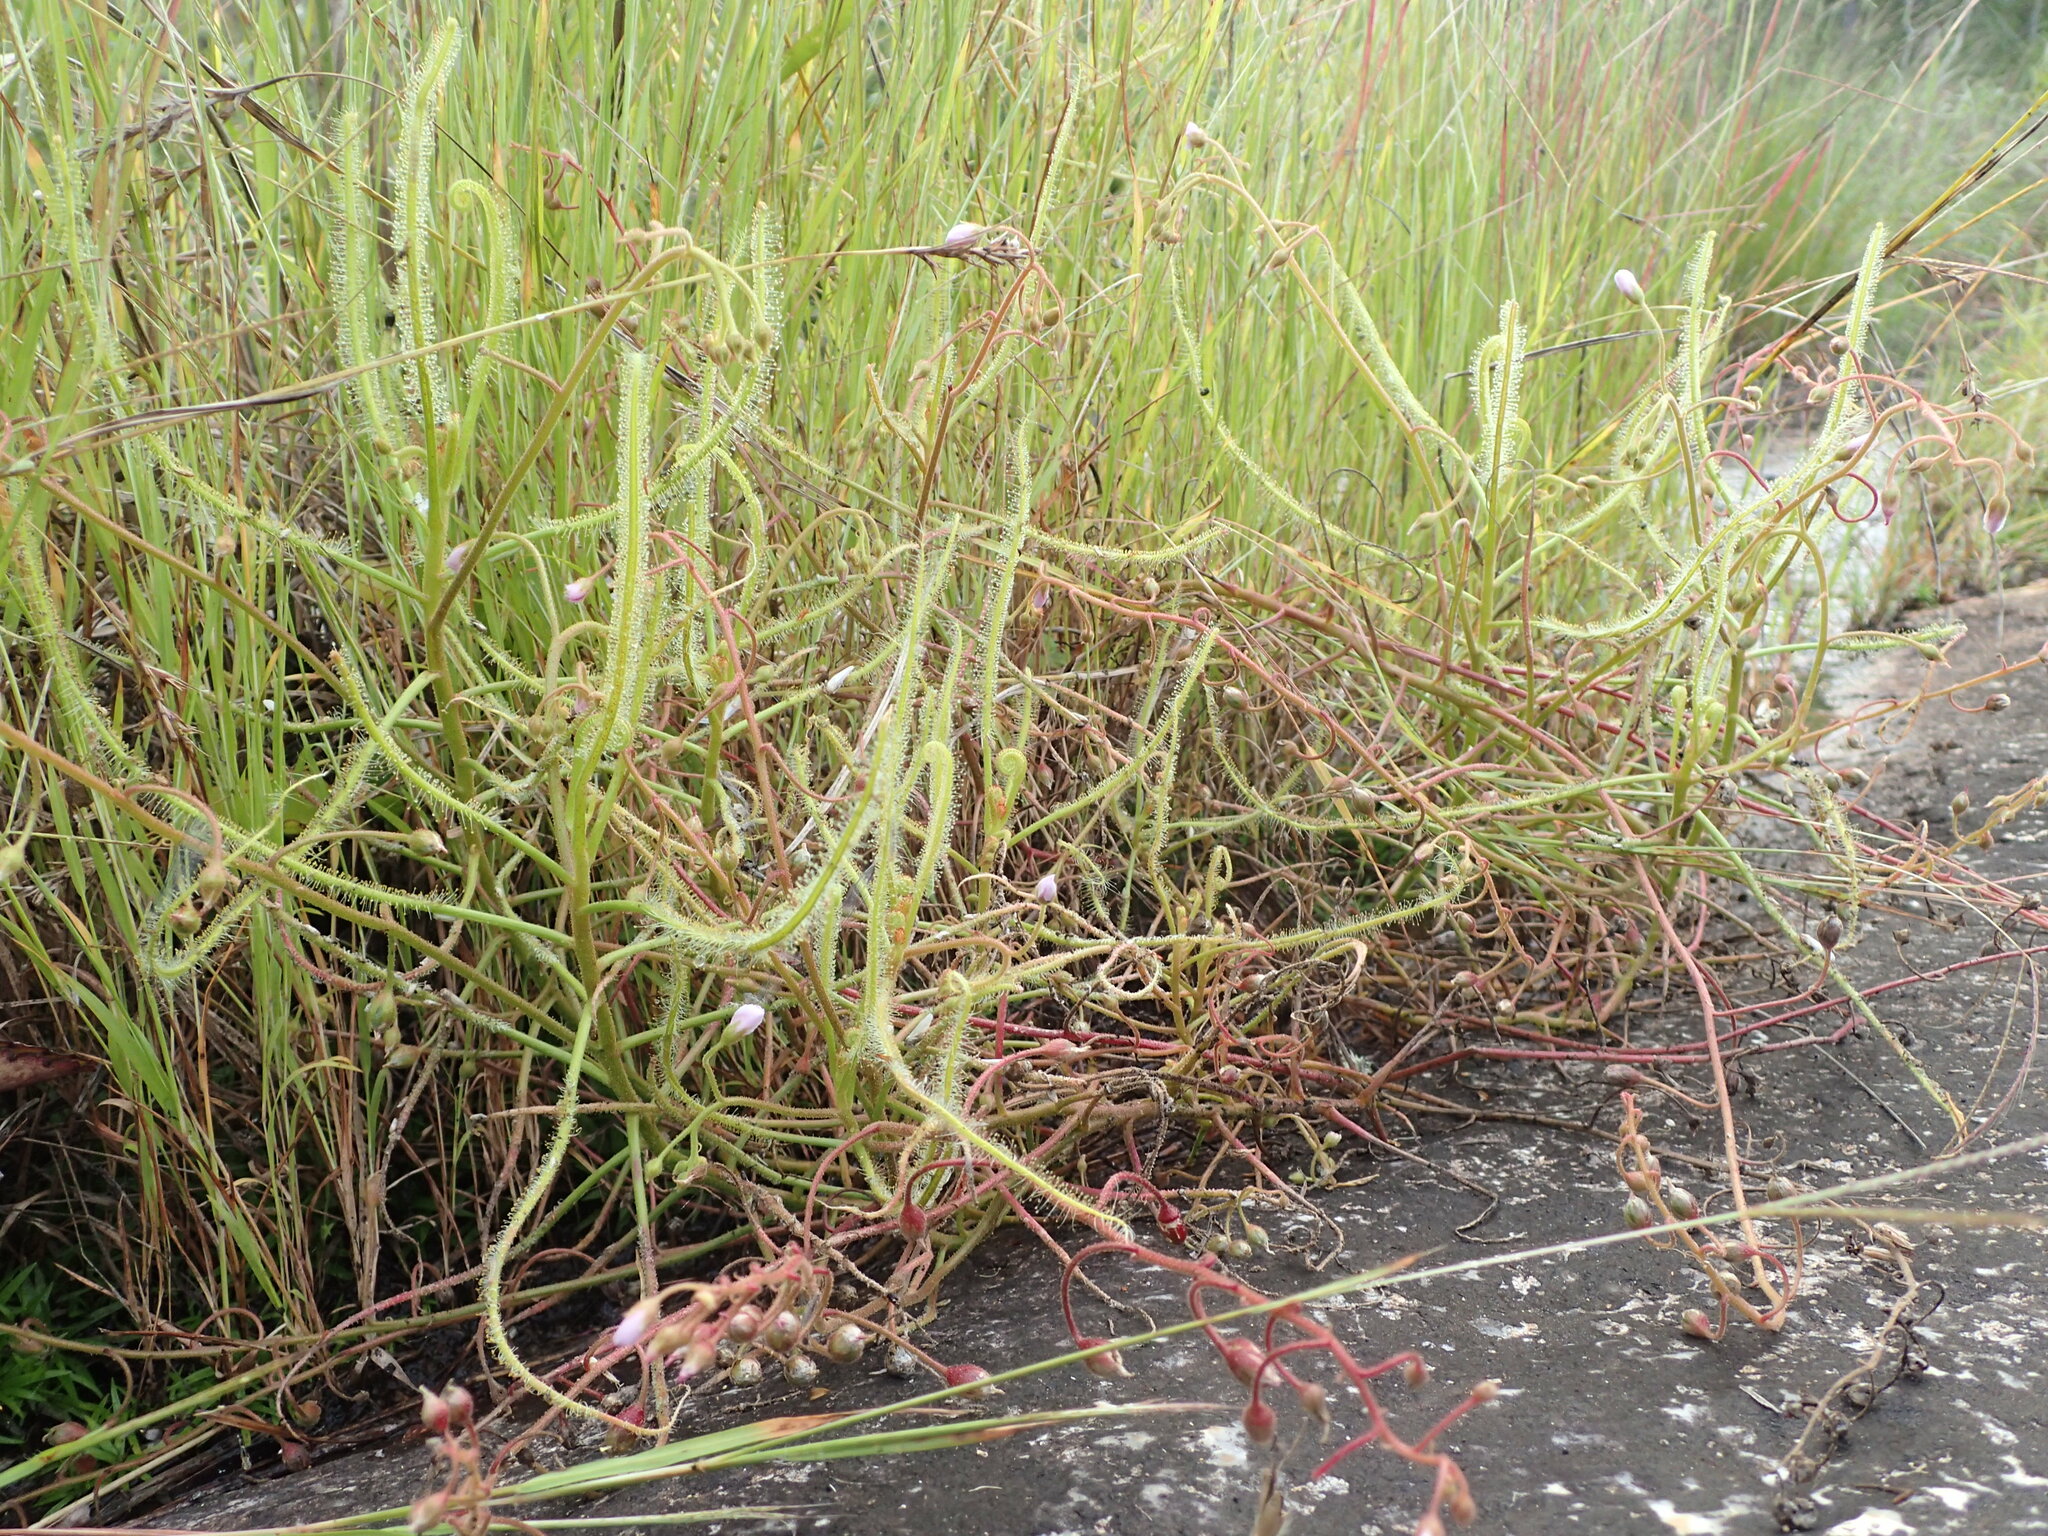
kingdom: Plantae
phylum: Tracheophyta
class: Magnoliopsida
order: Caryophyllales
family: Droseraceae
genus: Drosera
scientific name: Drosera indica
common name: Indian sundew
